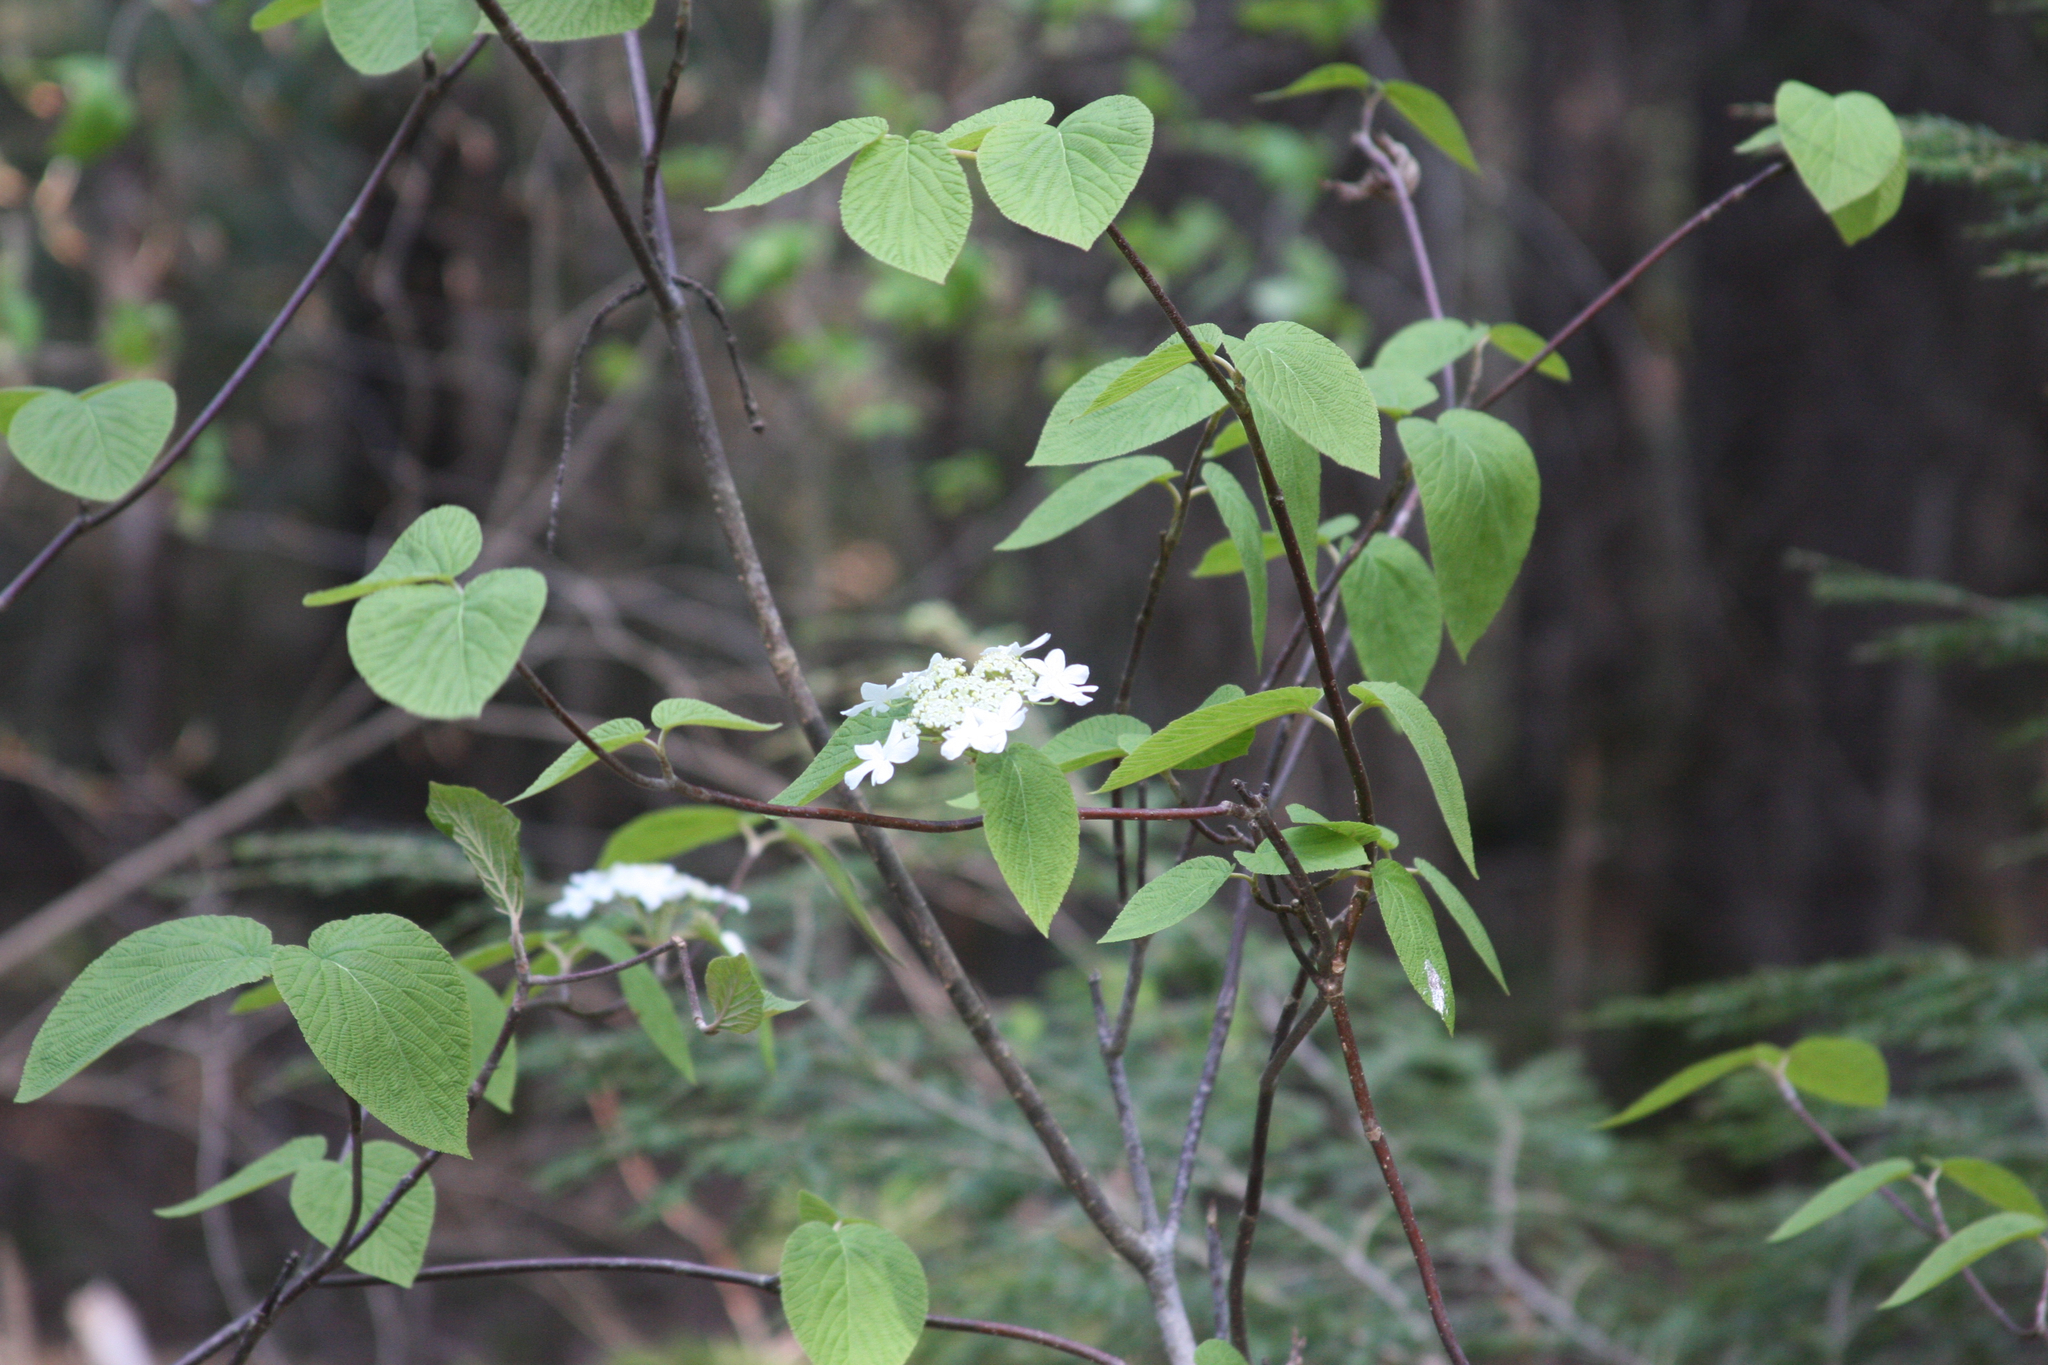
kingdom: Plantae
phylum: Tracheophyta
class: Magnoliopsida
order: Dipsacales
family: Viburnaceae
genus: Viburnum
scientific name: Viburnum lantanoides
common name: Hobblebush
